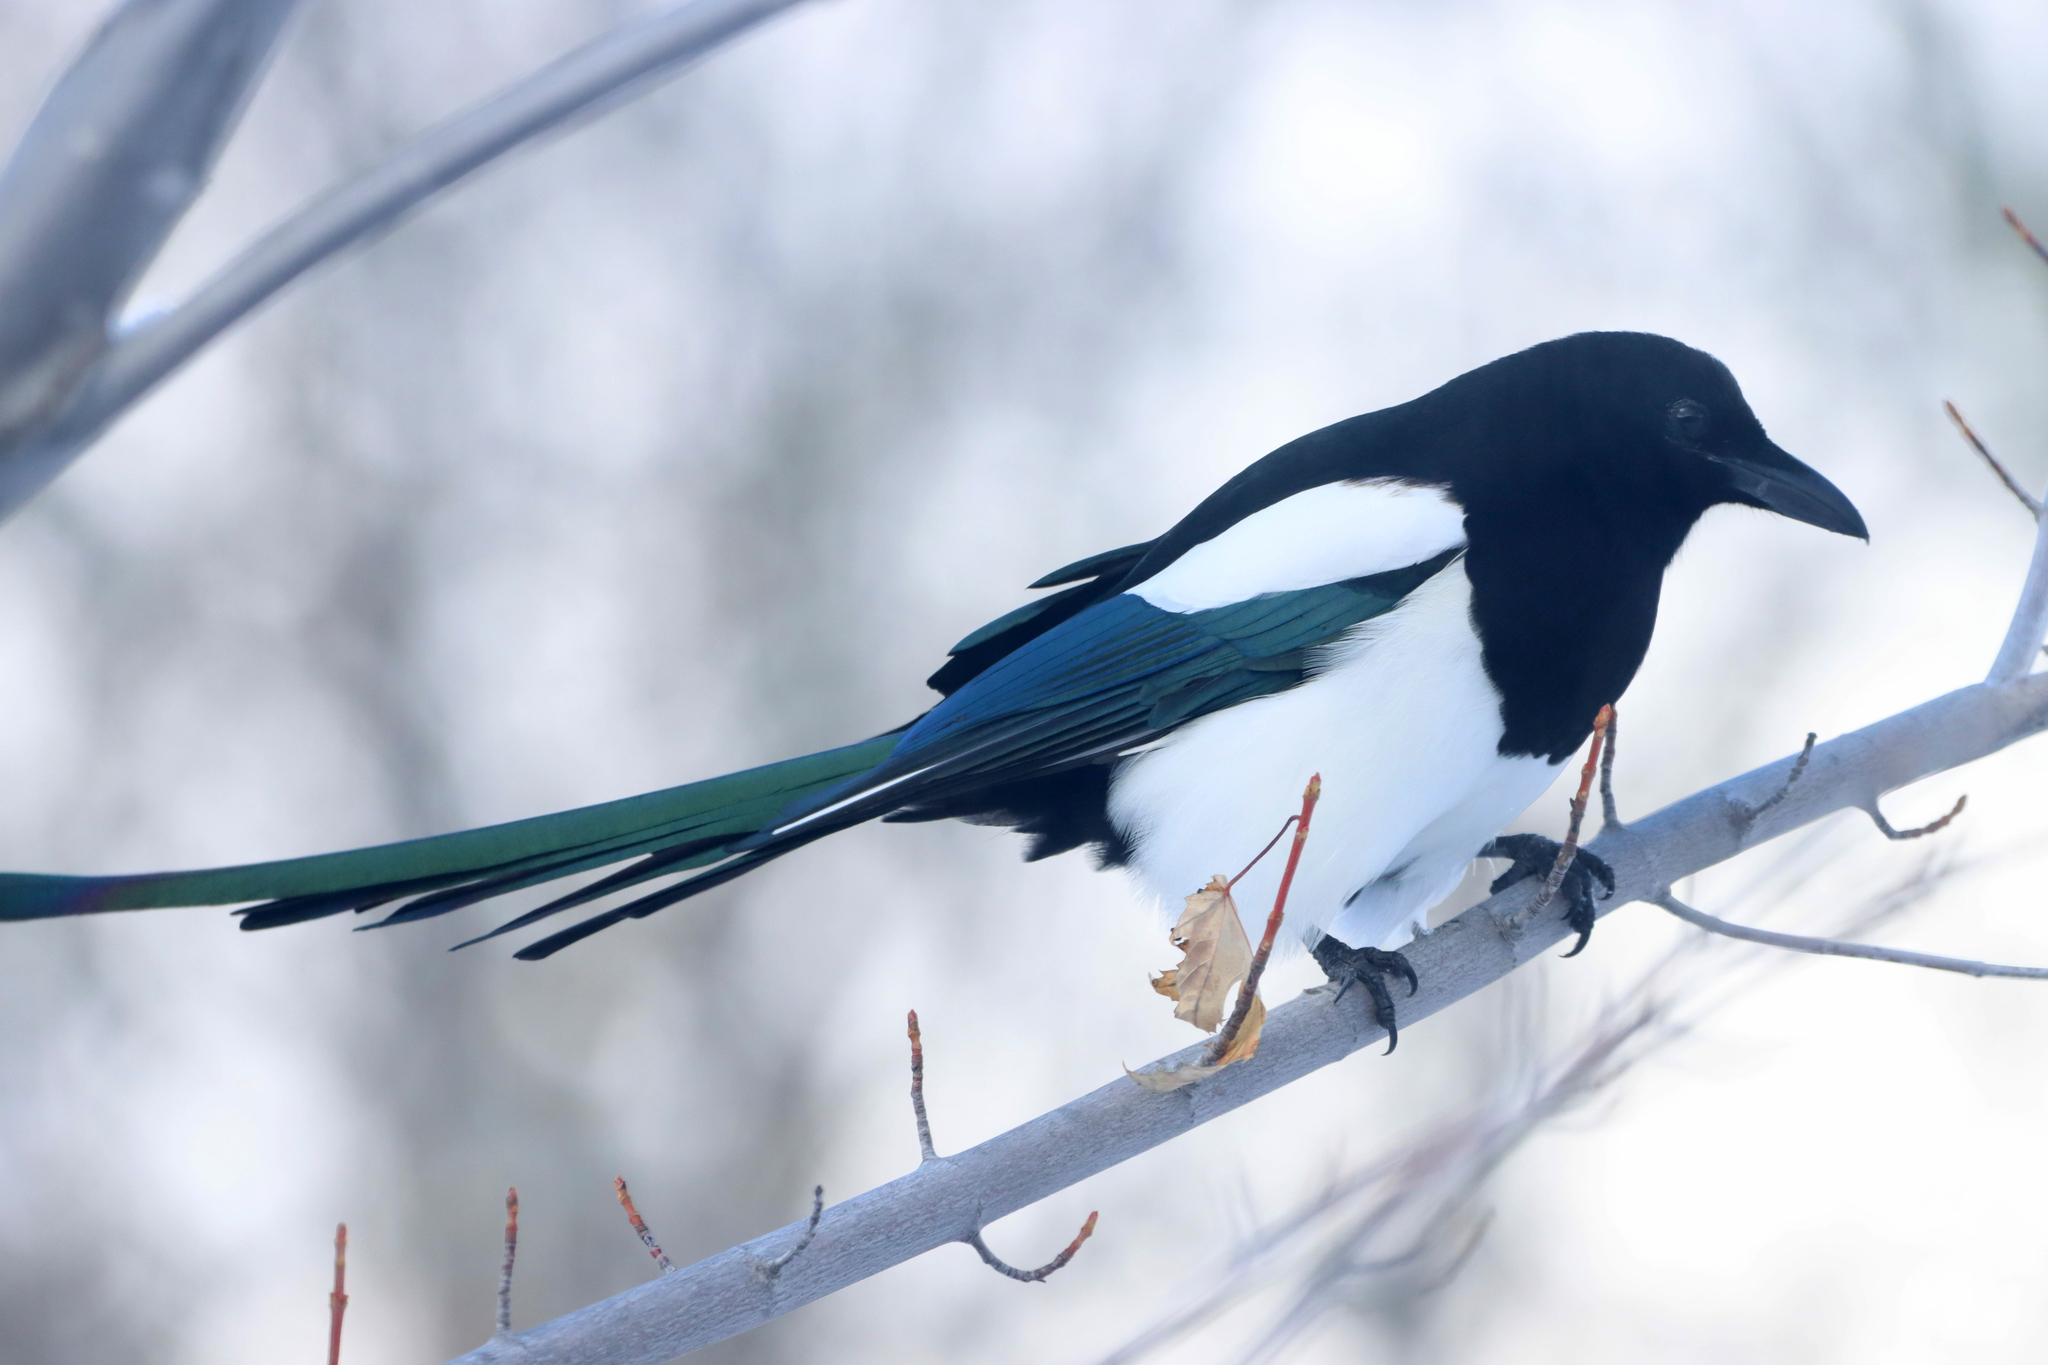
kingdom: Animalia
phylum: Chordata
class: Aves
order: Passeriformes
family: Corvidae
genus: Pica
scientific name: Pica hudsonia
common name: Black-billed magpie
